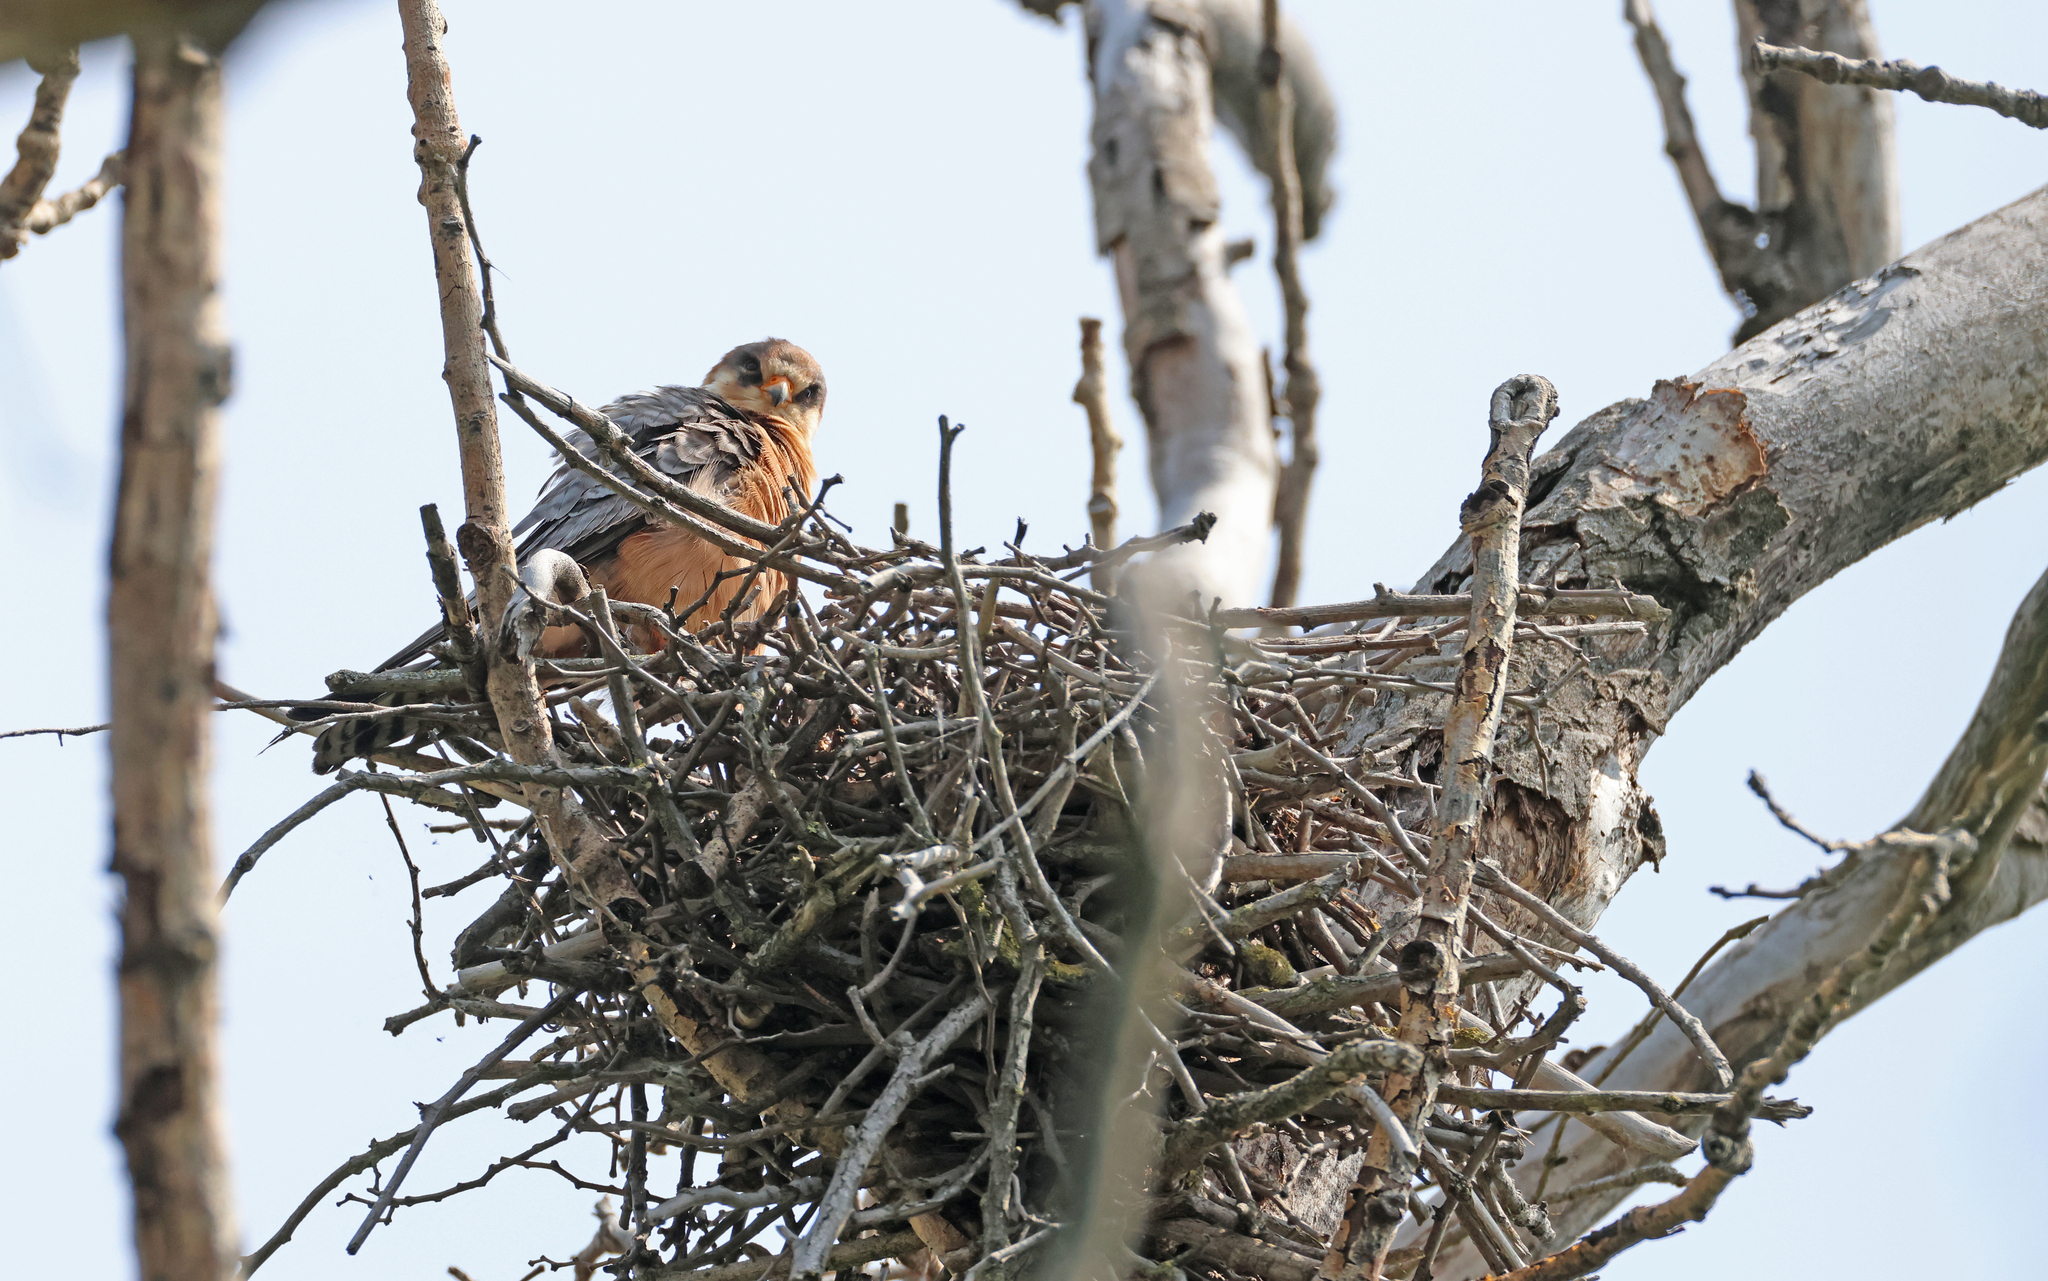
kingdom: Animalia
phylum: Chordata
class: Aves
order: Falconiformes
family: Falconidae
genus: Falco
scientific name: Falco vespertinus
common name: Red-footed falcon
